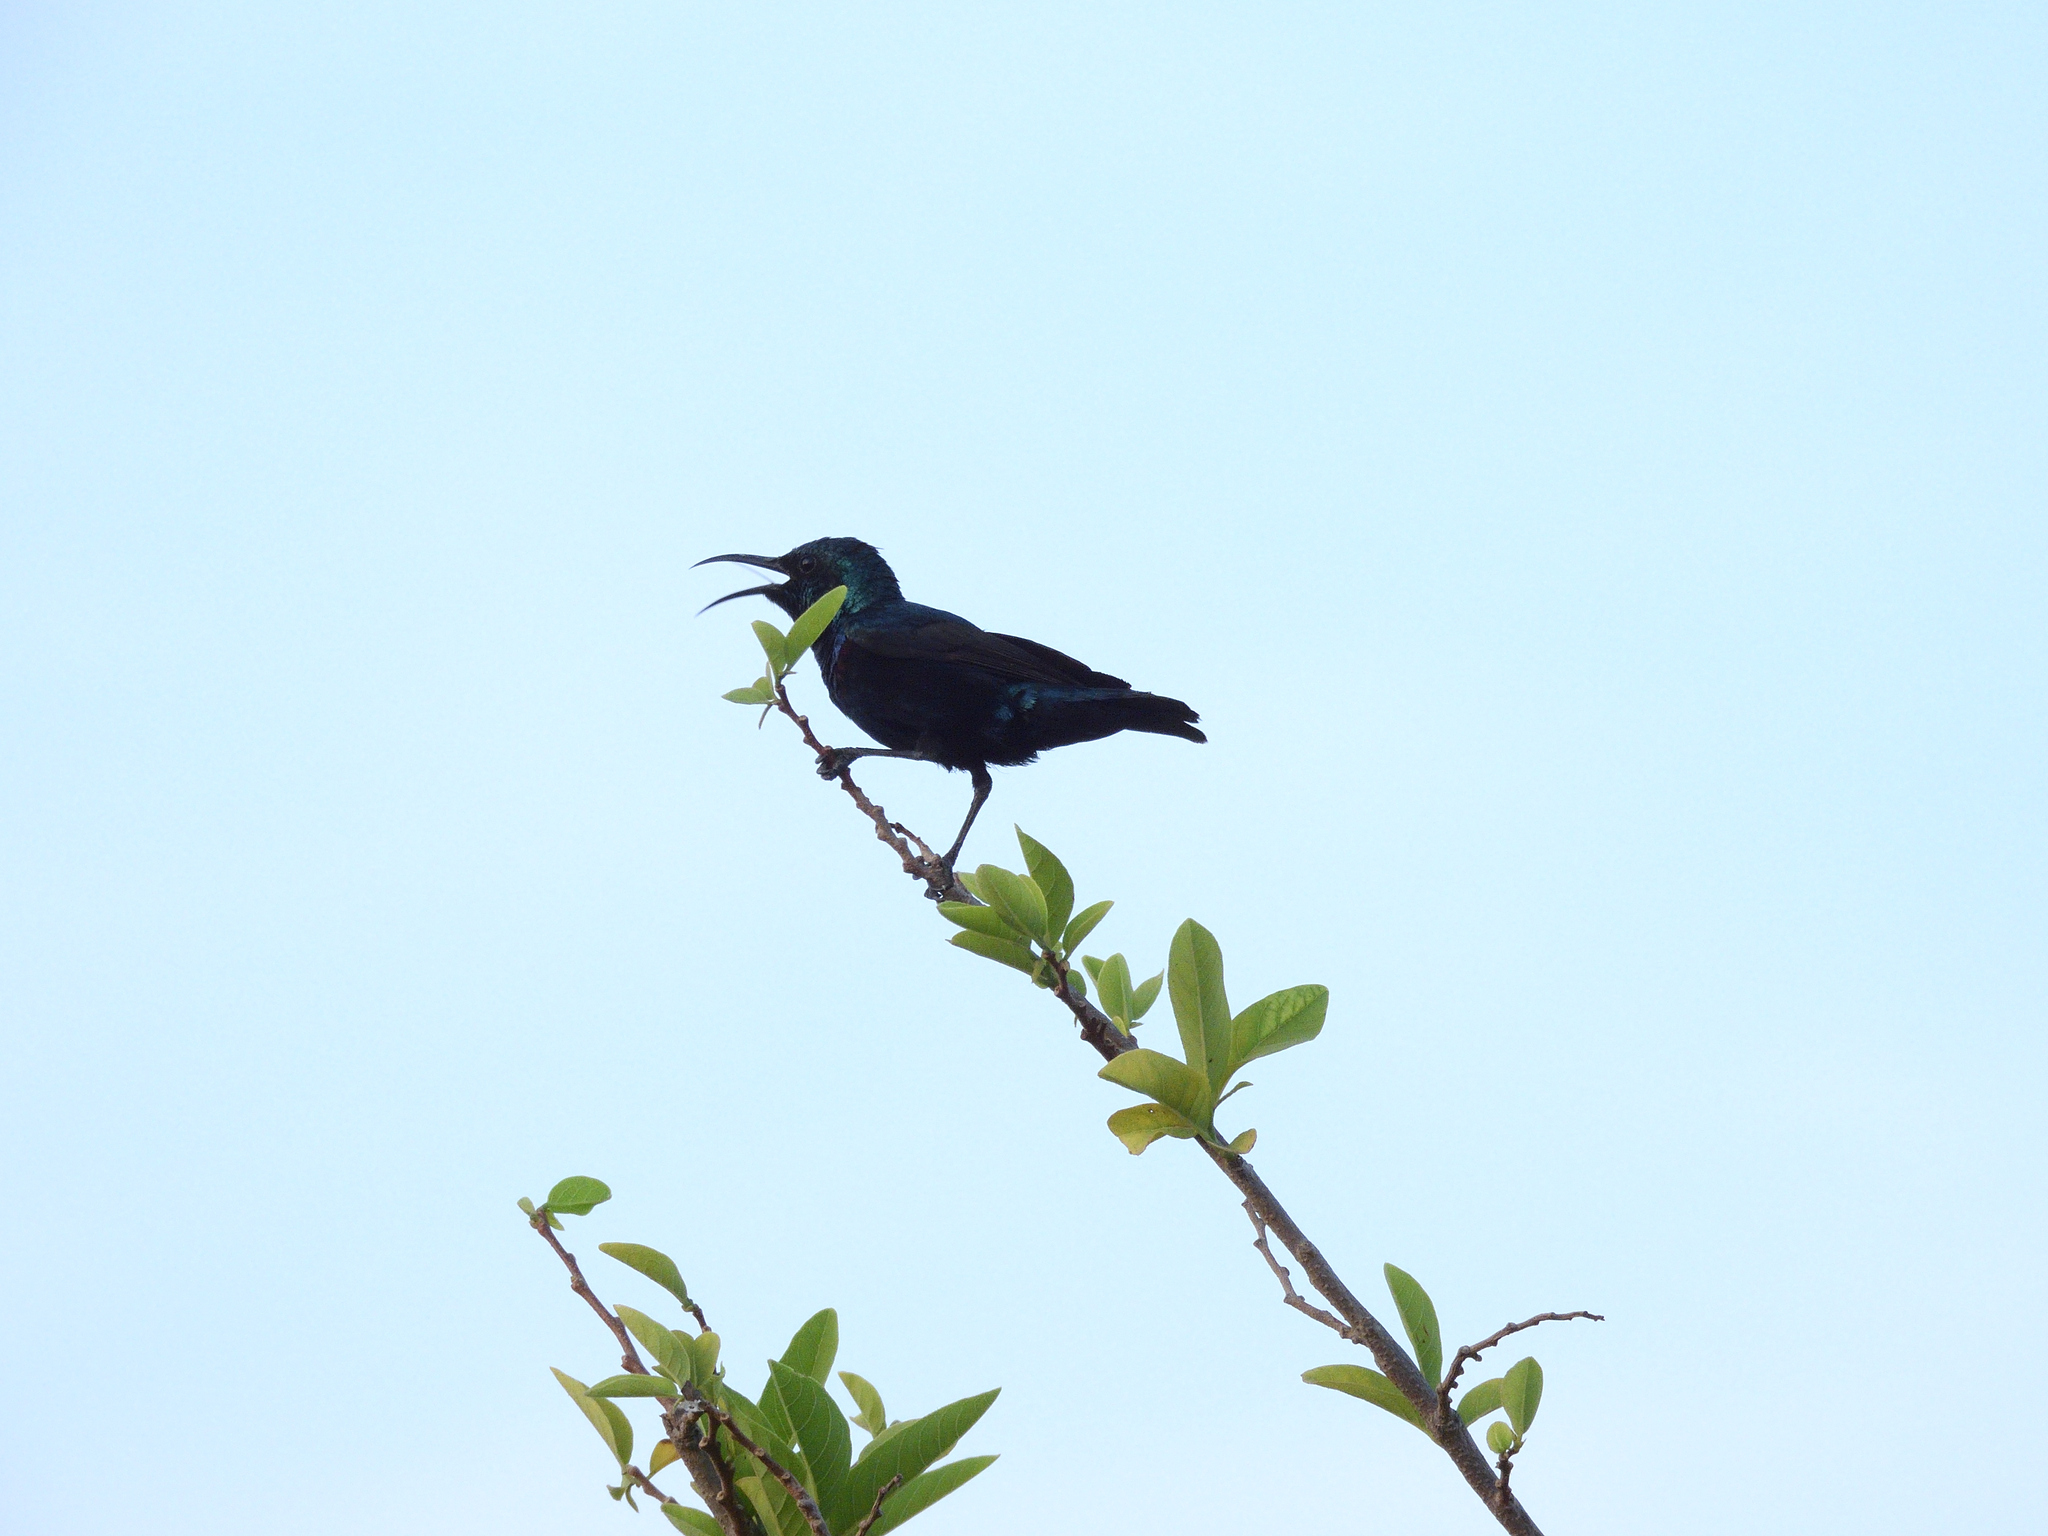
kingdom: Animalia
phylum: Chordata
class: Aves
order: Passeriformes
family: Nectariniidae
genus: Cinnyris
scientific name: Cinnyris asiaticus
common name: Purple sunbird
